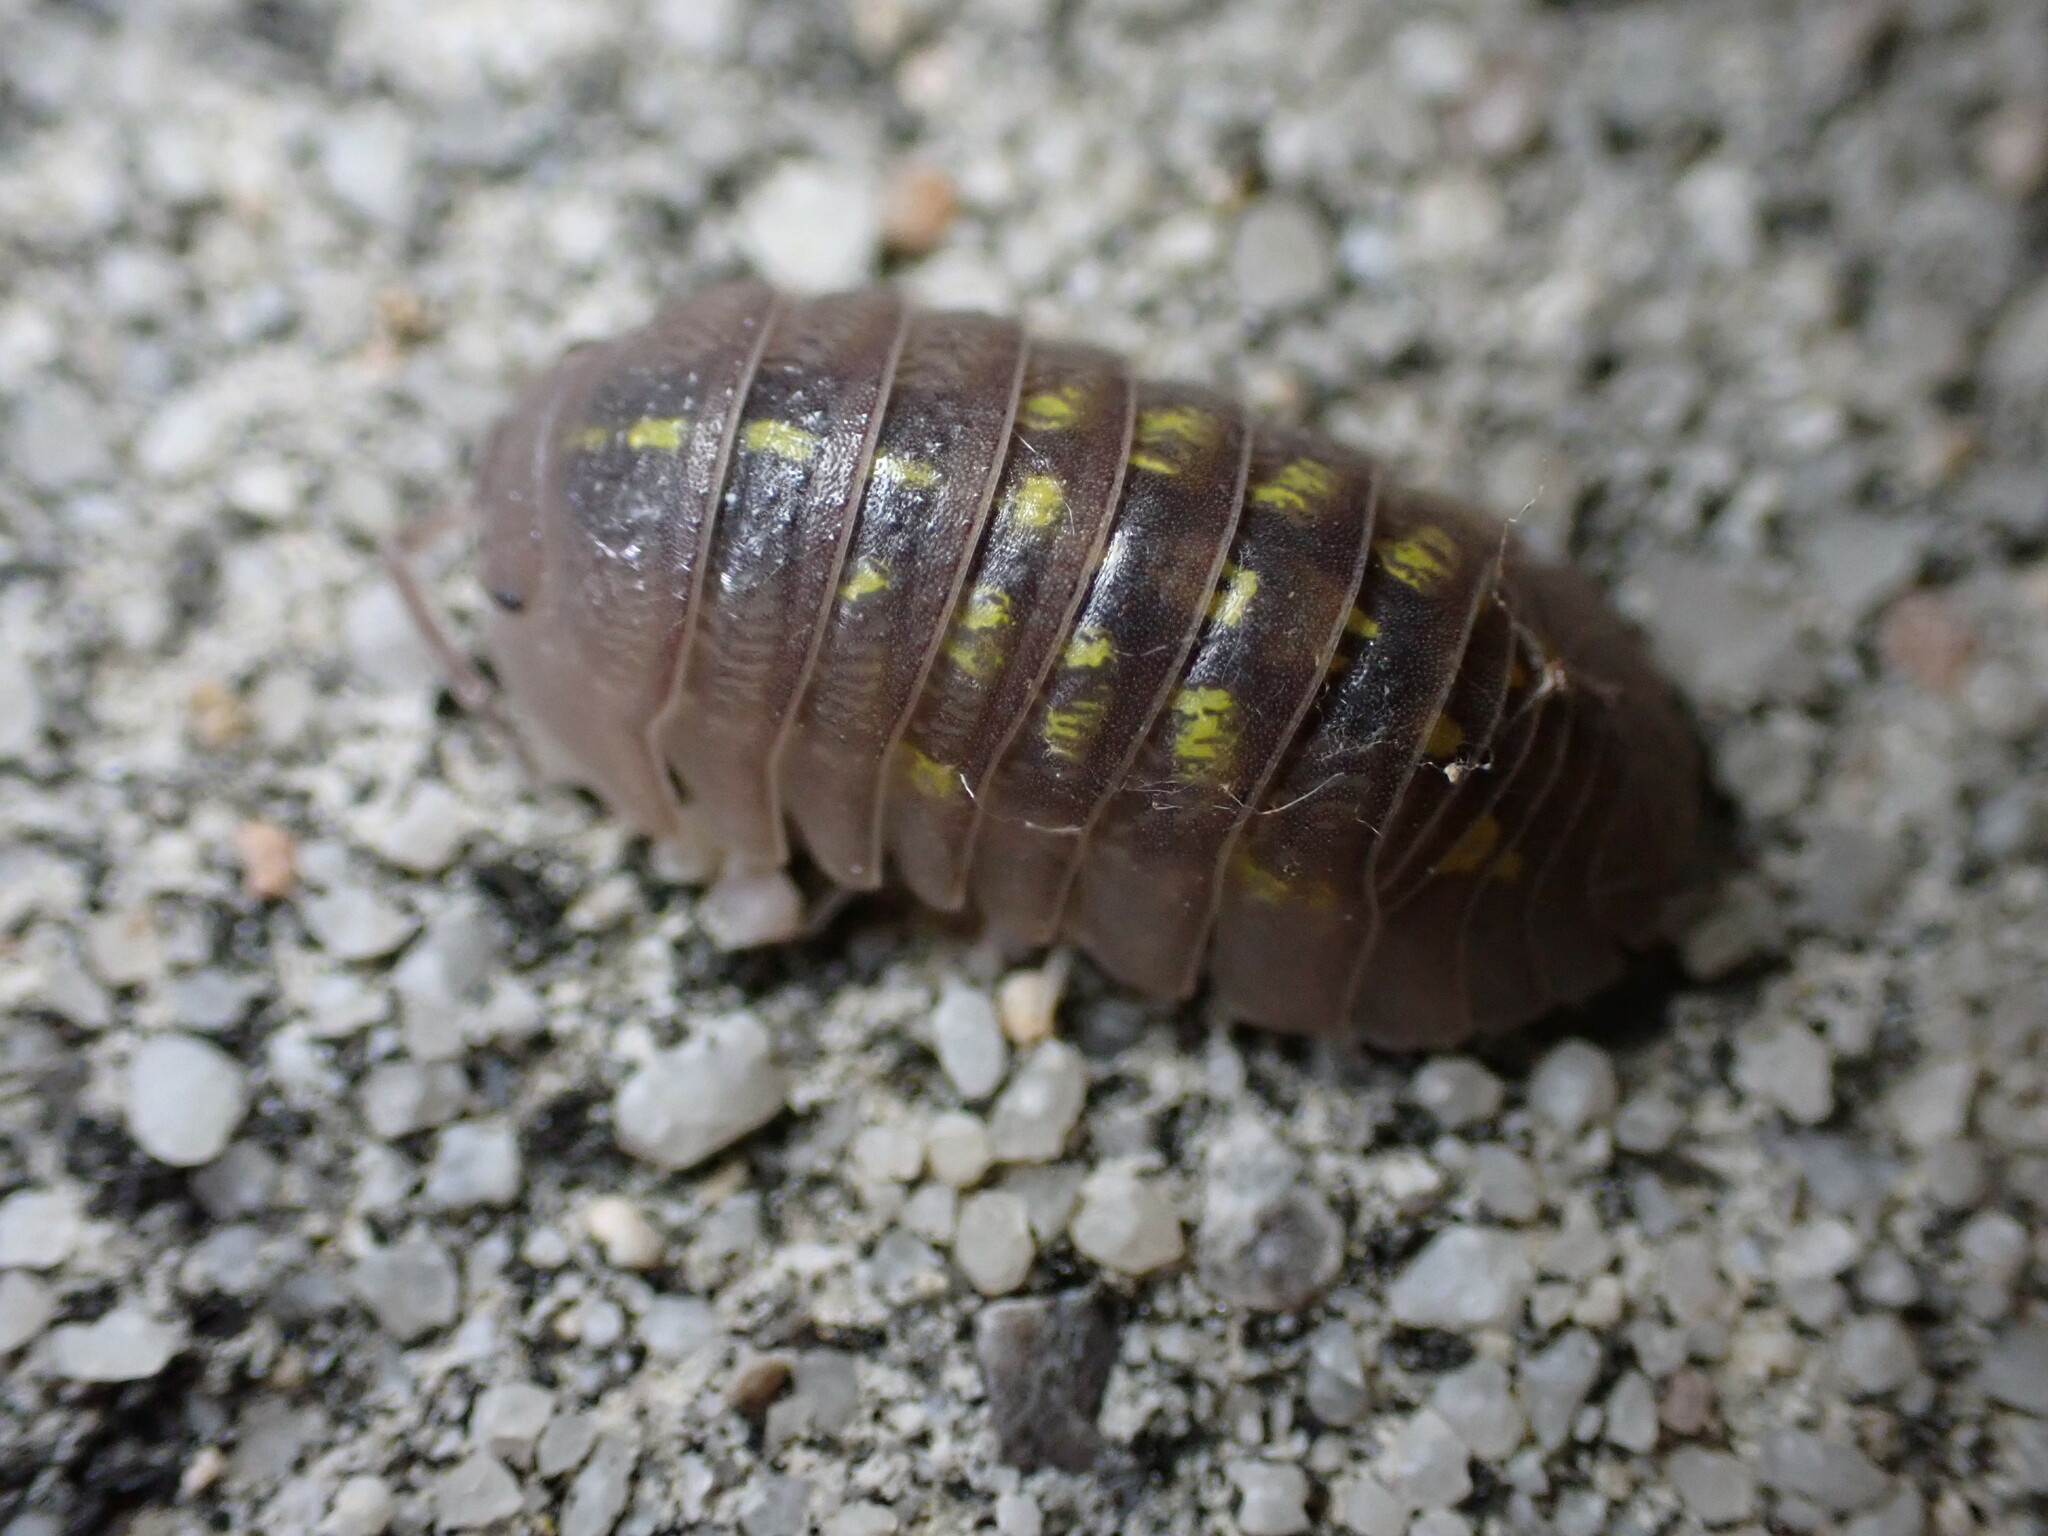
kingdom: Animalia
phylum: Arthropoda
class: Malacostraca
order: Isopoda
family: Armadillidiidae
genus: Armadillidium
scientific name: Armadillidium granulatum
